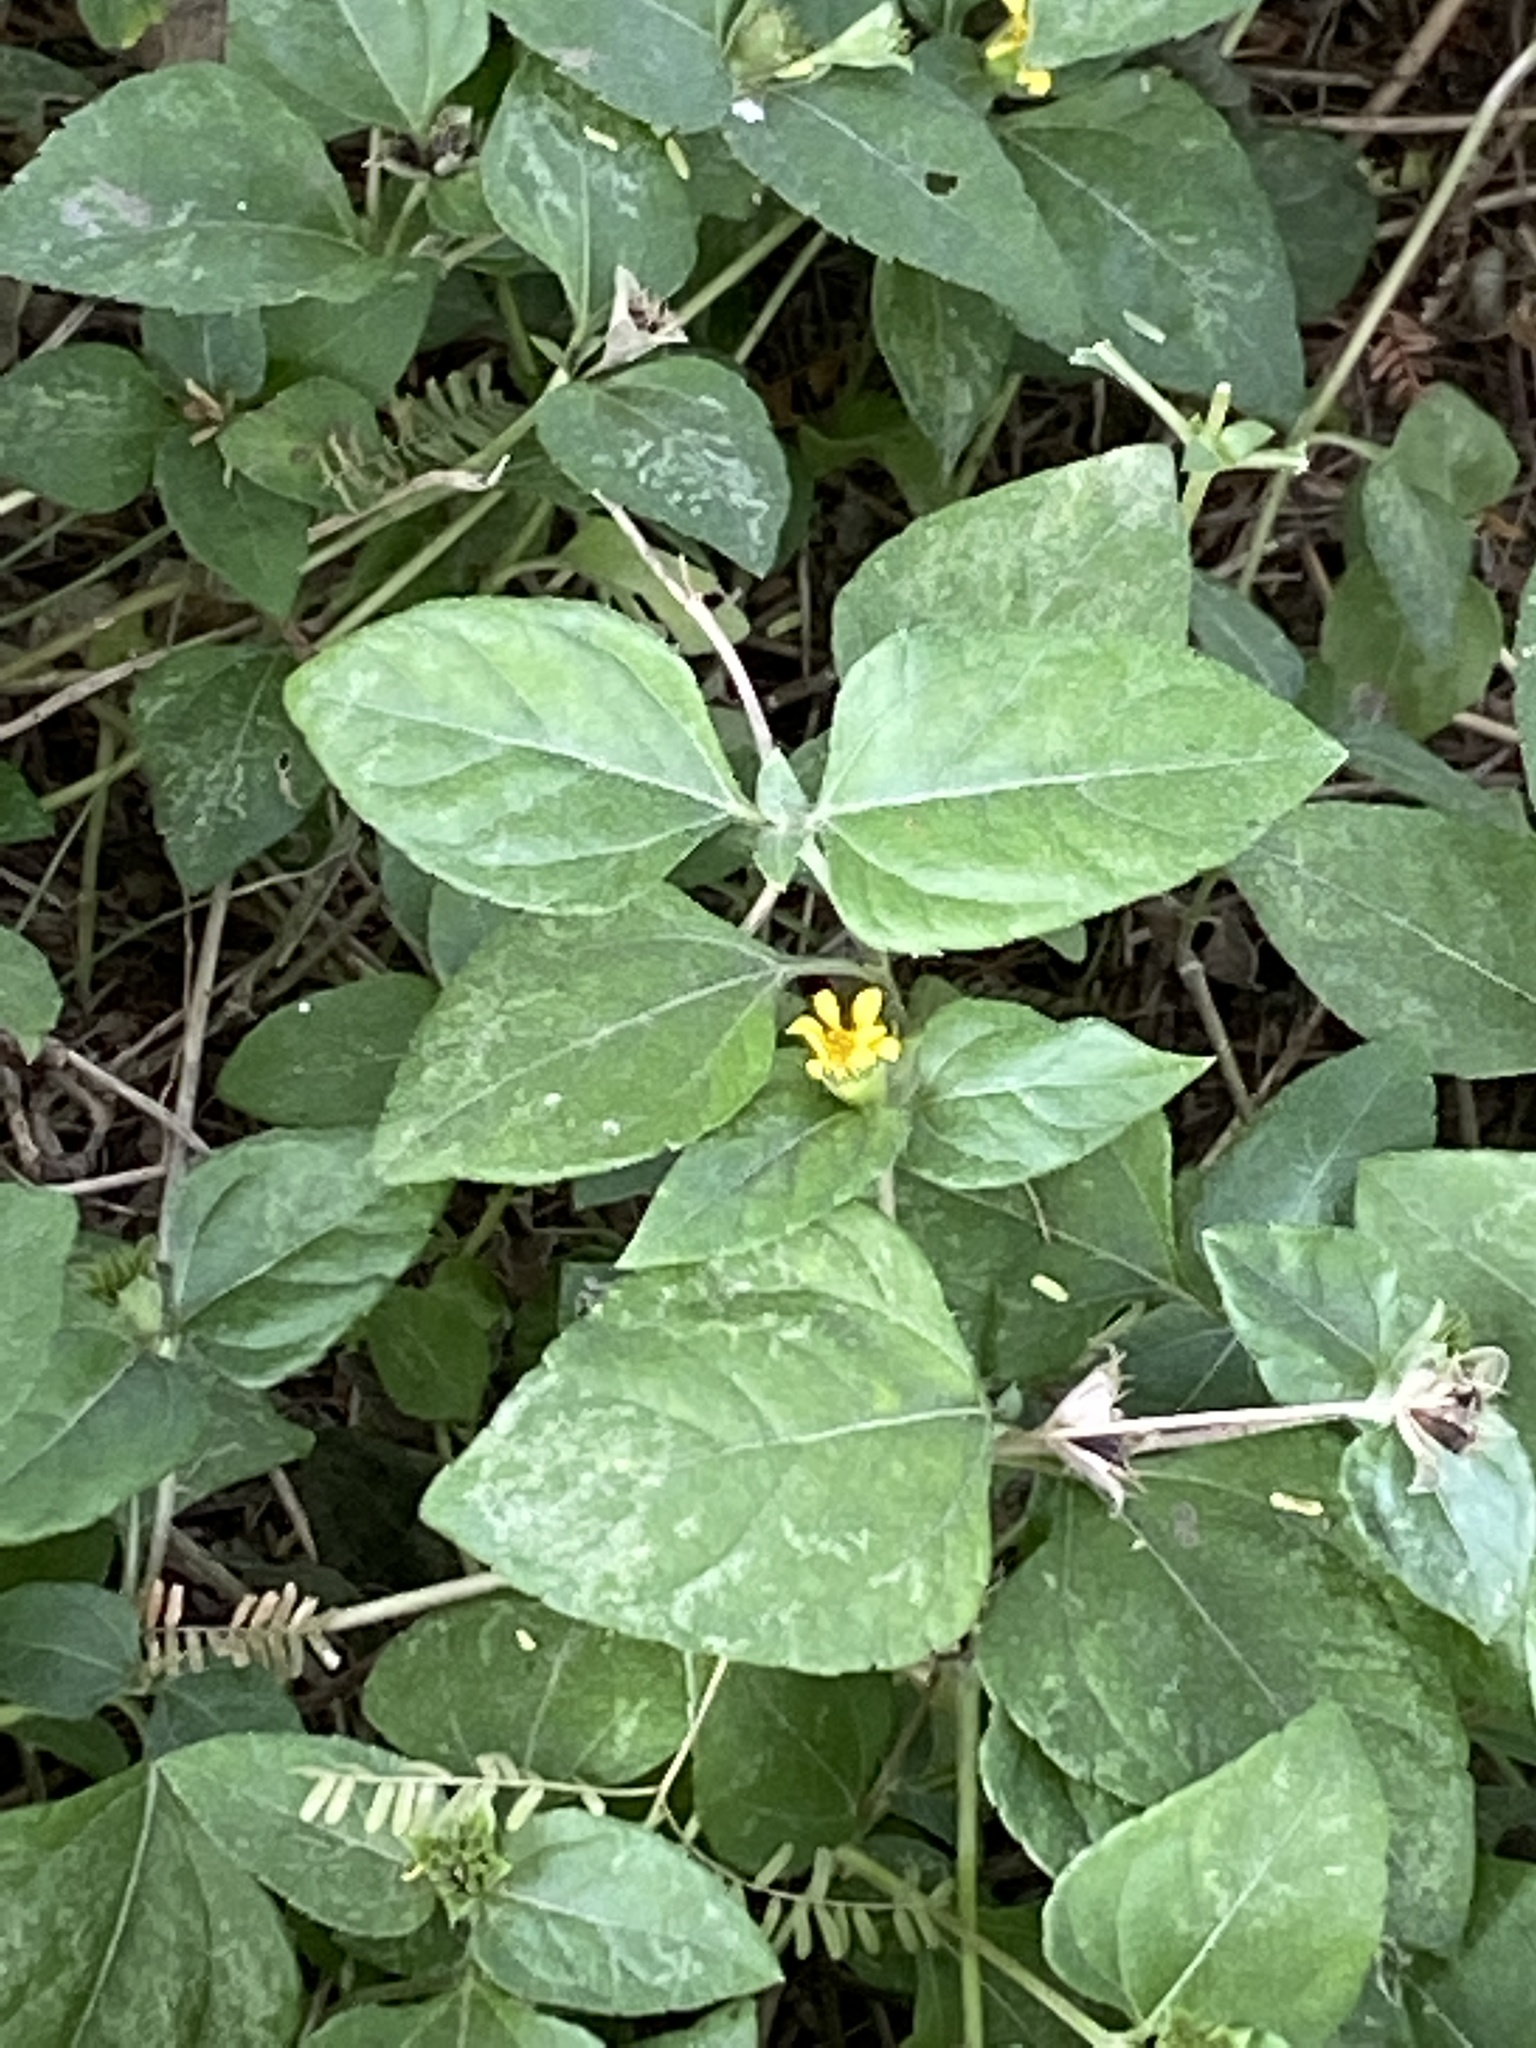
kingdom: Plantae
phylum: Tracheophyta
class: Magnoliopsida
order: Asterales
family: Asteraceae
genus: Calyptocarpus
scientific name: Calyptocarpus vialis
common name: Straggler daisy
